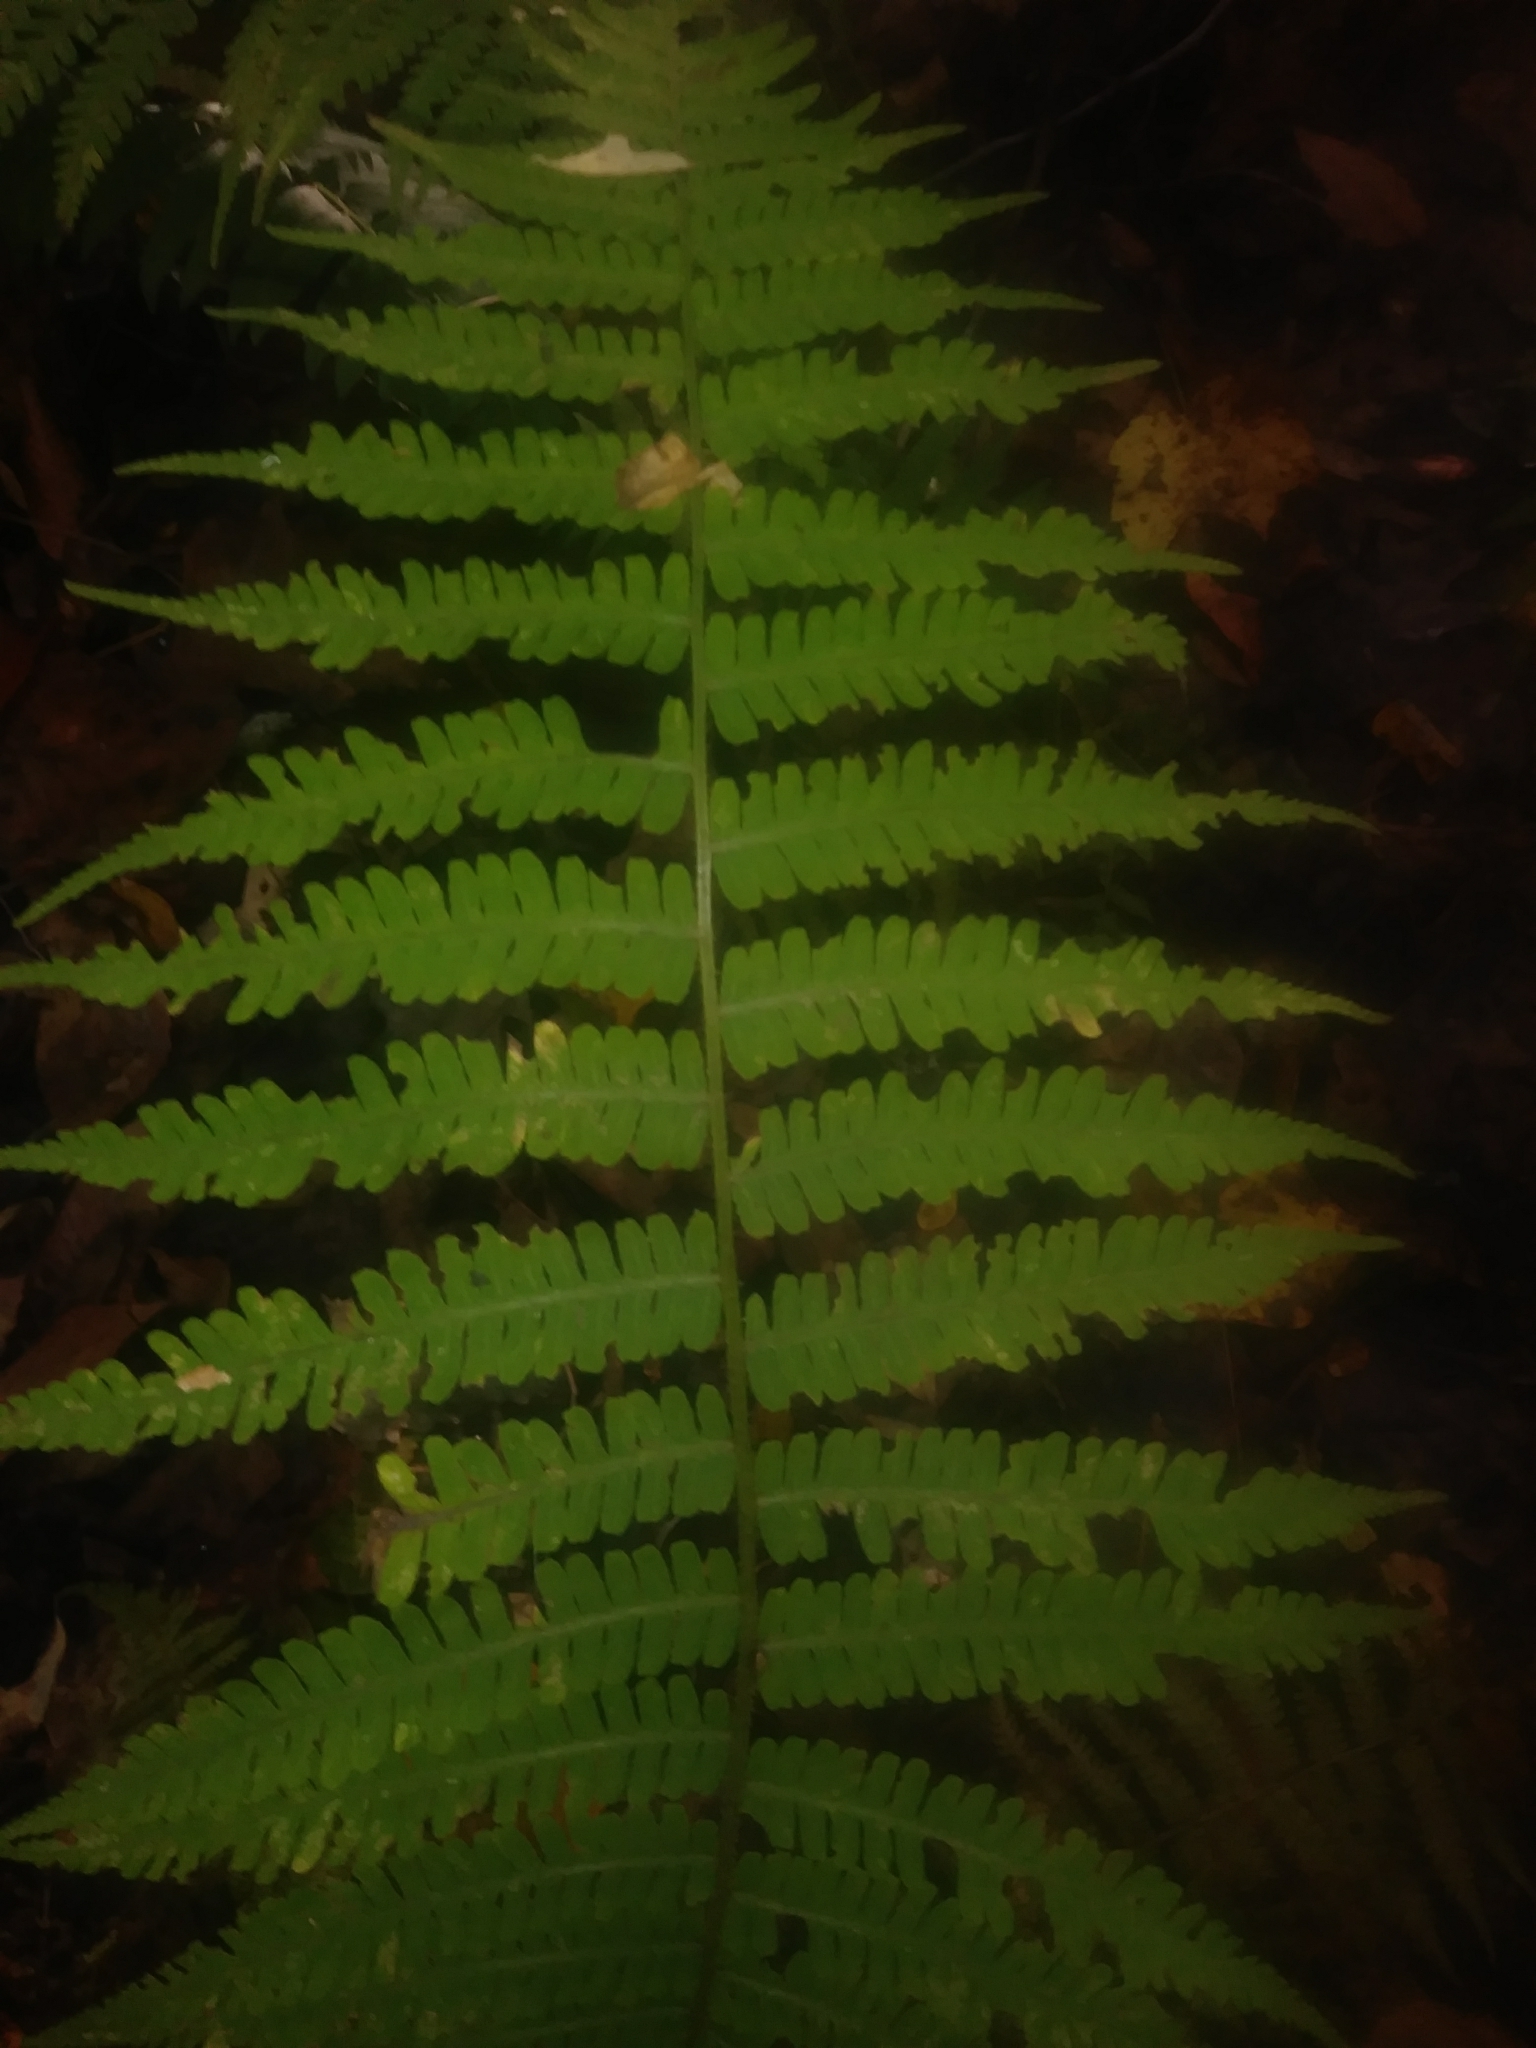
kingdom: Plantae
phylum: Tracheophyta
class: Polypodiopsida
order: Polypodiales
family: Athyriaceae
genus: Deparia
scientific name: Deparia acrostichoides
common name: Silver false spleenwort
